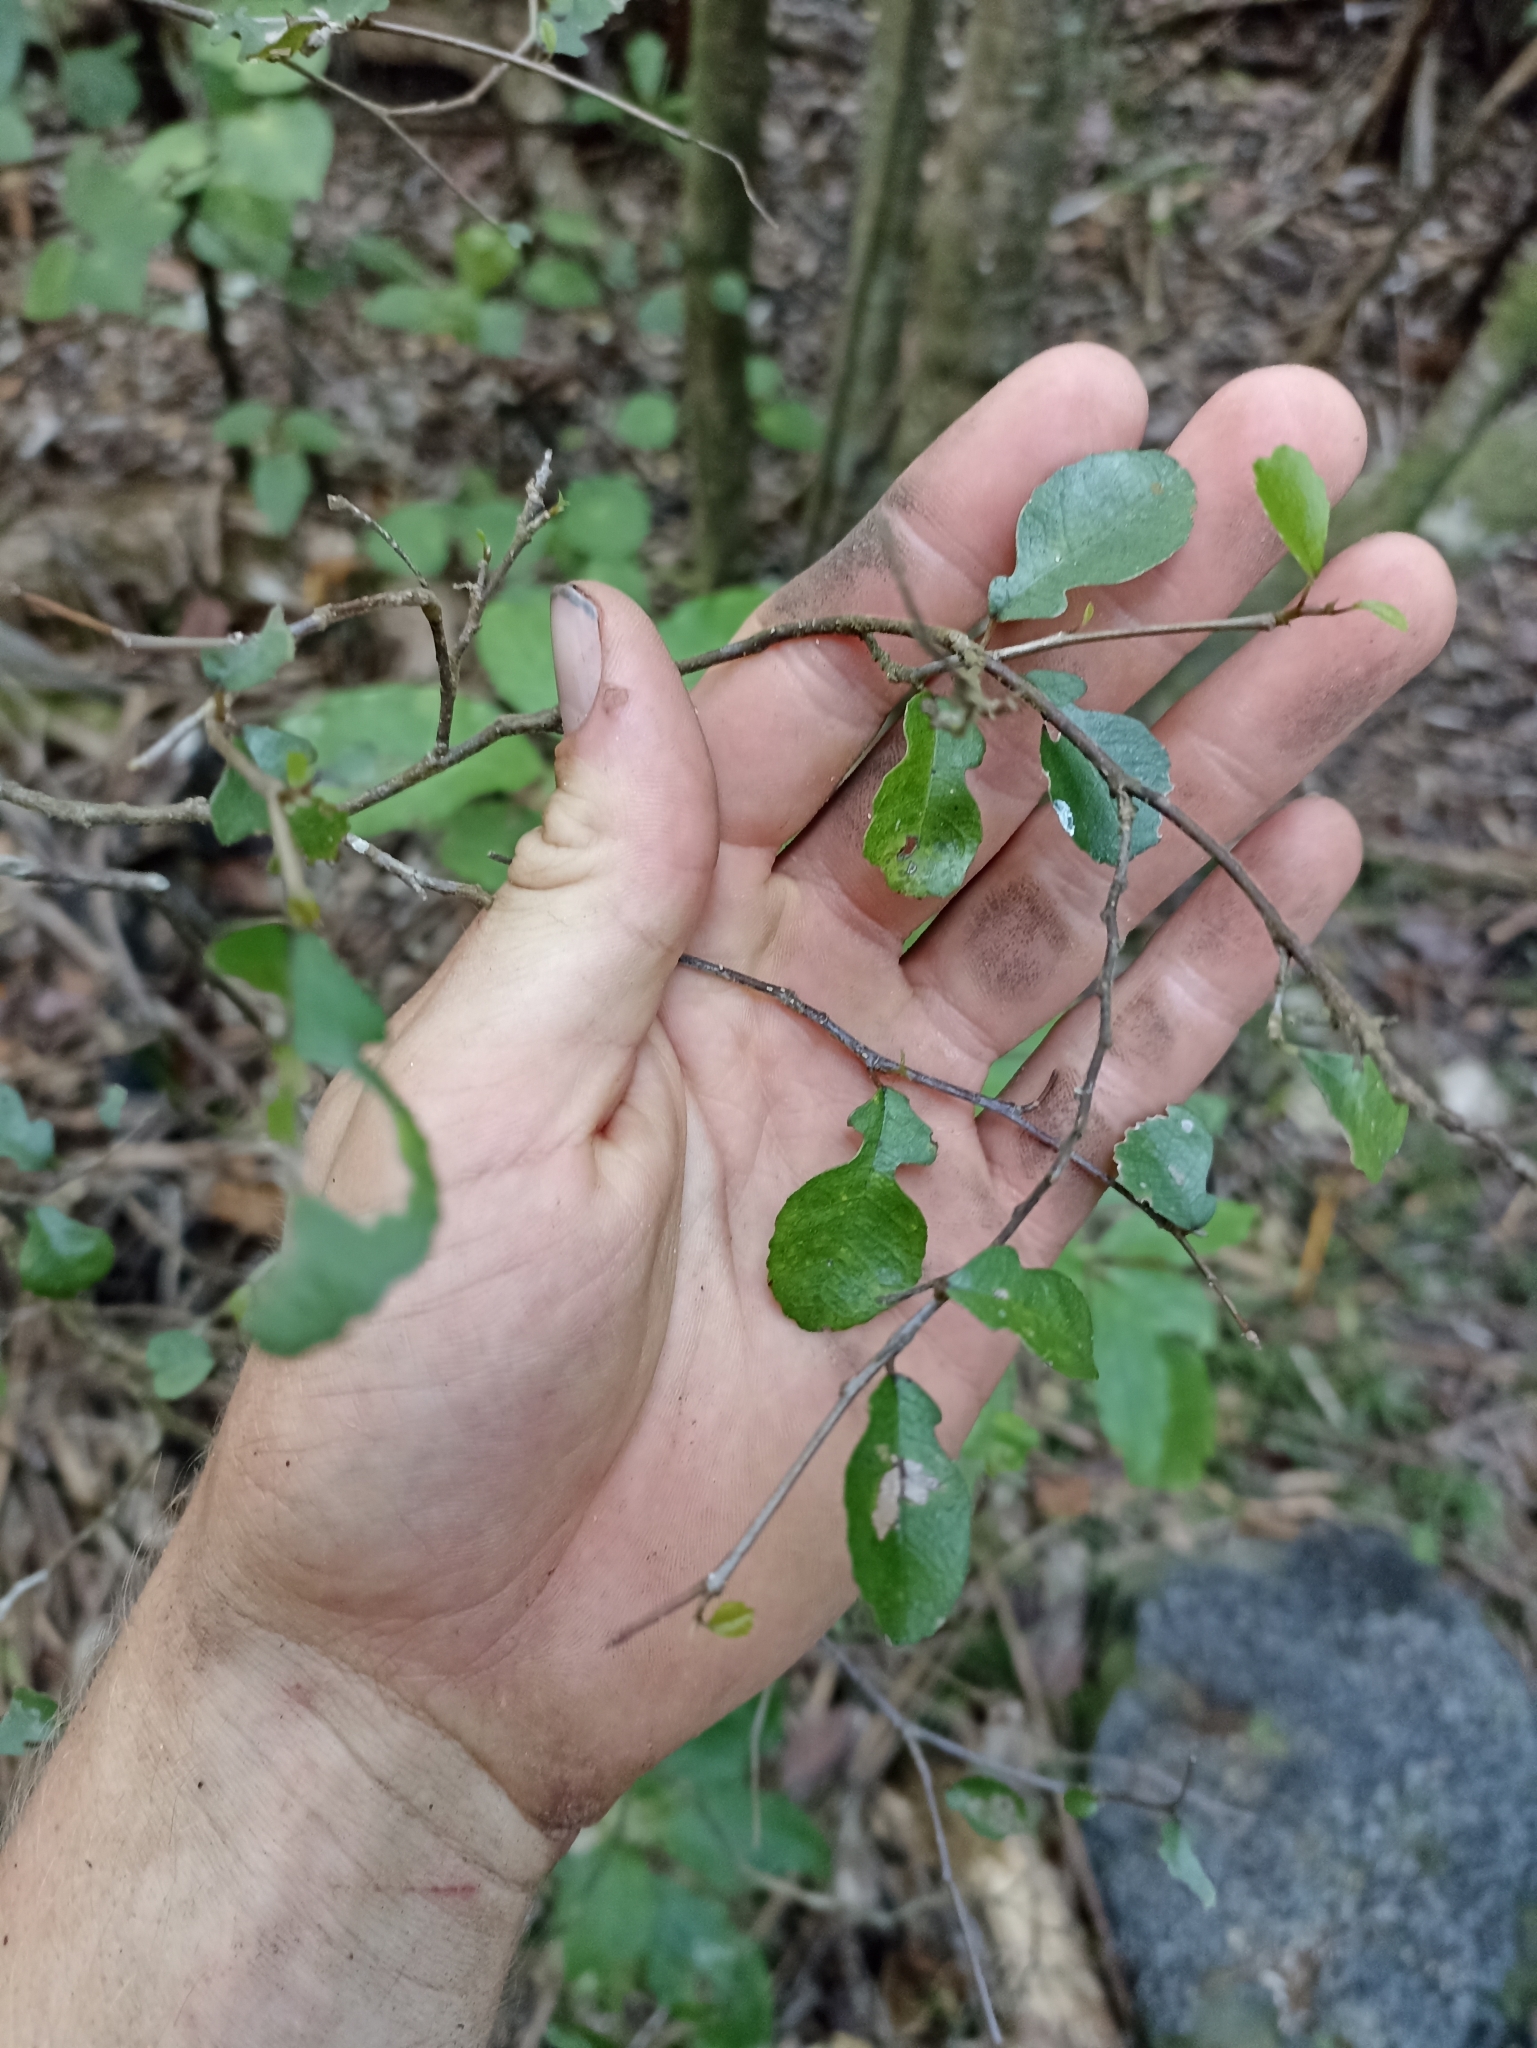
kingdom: Plantae
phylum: Tracheophyta
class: Magnoliopsida
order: Rosales
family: Moraceae
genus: Paratrophis
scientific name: Paratrophis microphylla
